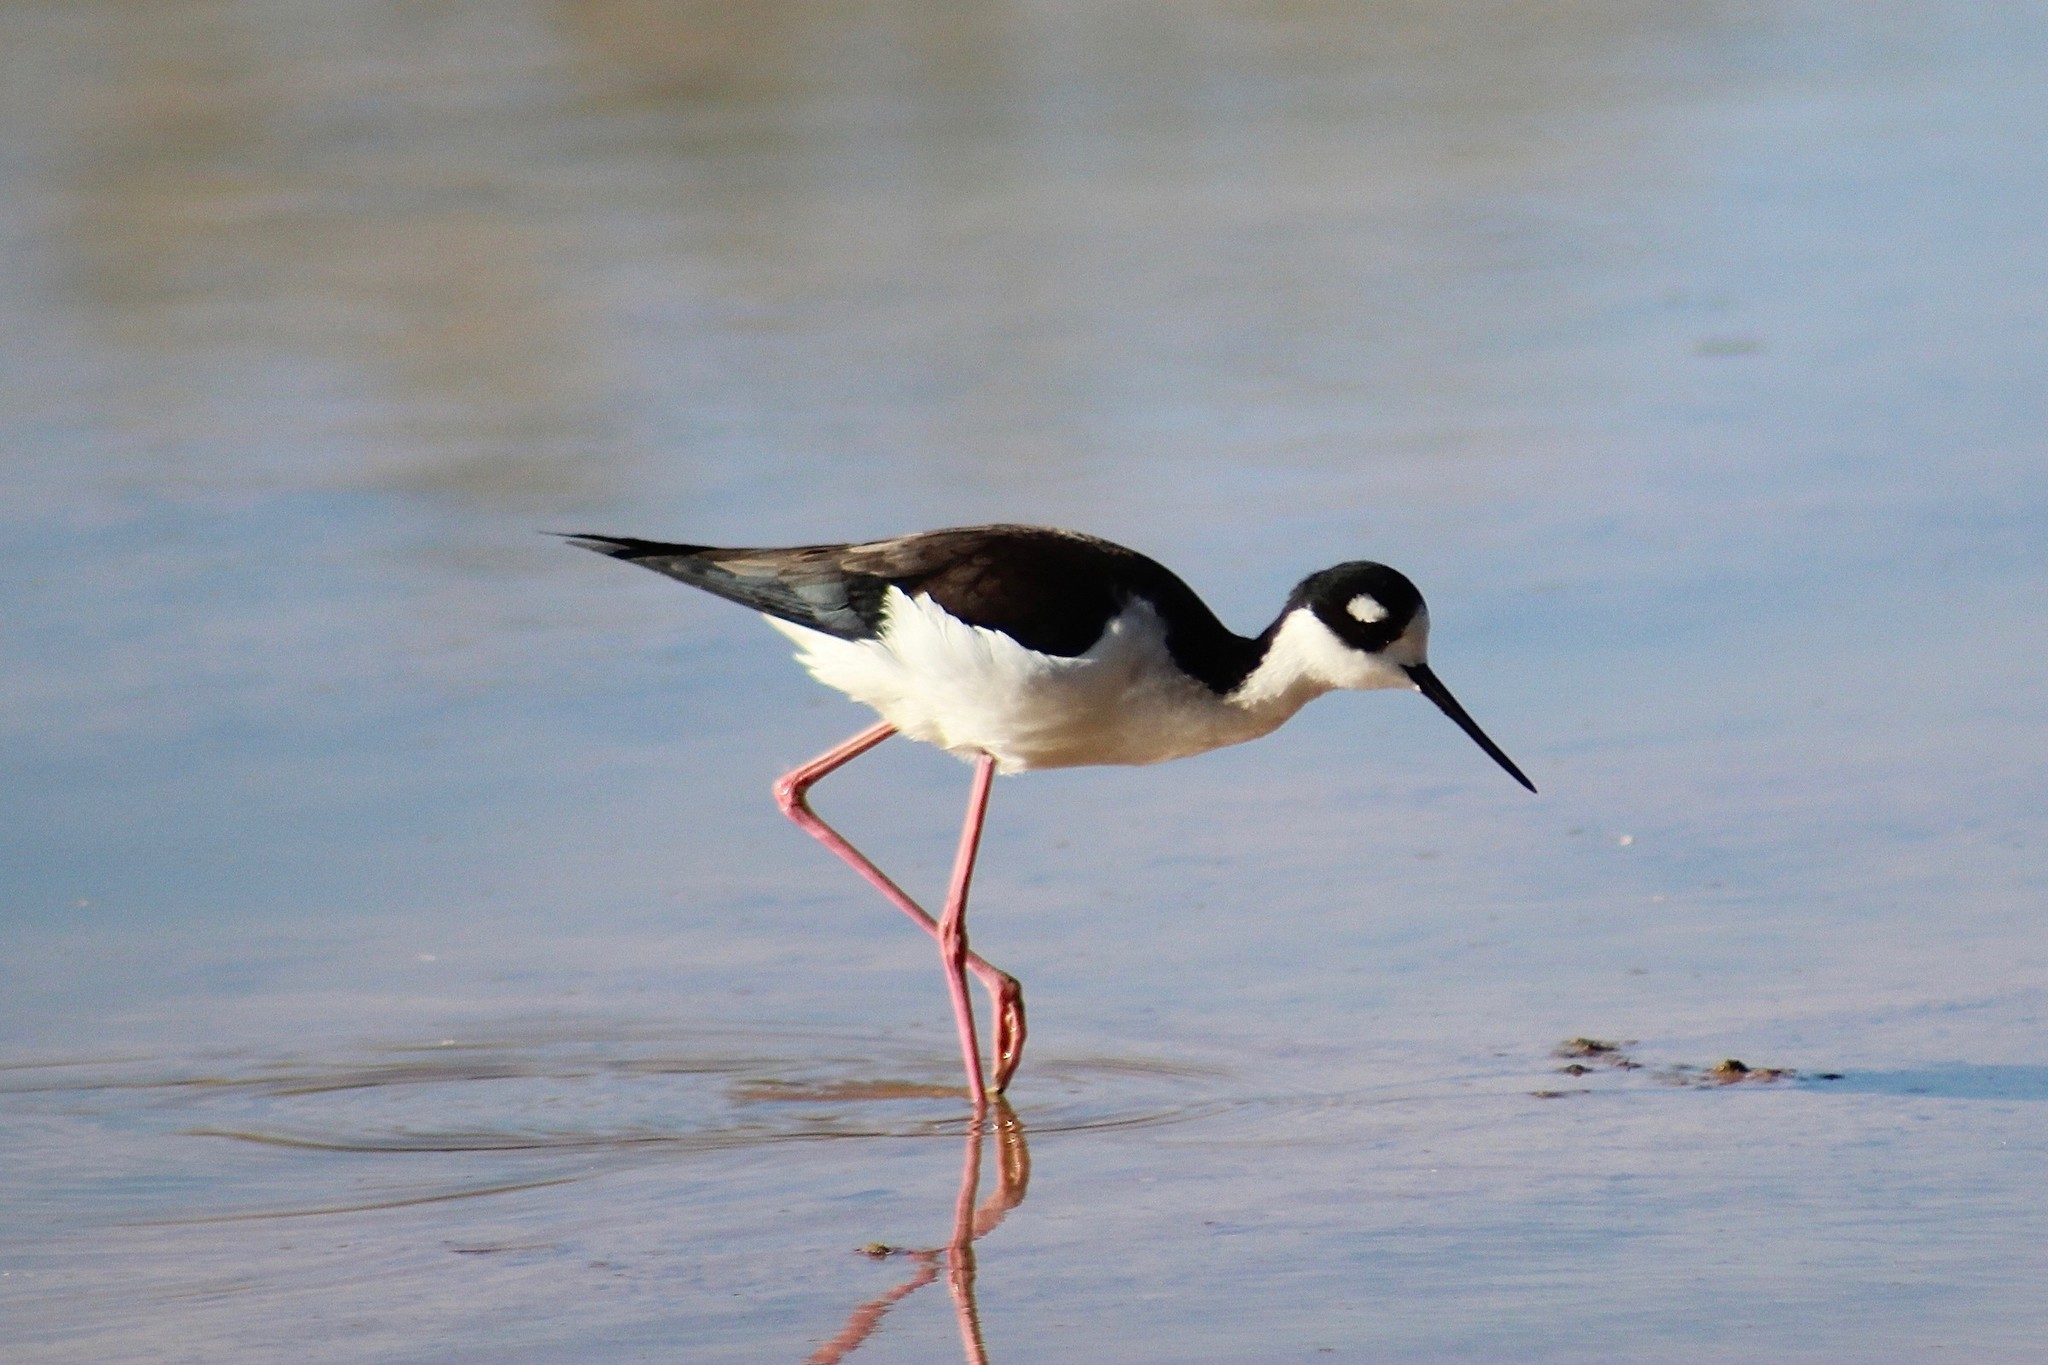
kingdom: Animalia
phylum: Chordata
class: Aves
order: Charadriiformes
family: Recurvirostridae
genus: Himantopus
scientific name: Himantopus mexicanus
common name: Black-necked stilt
